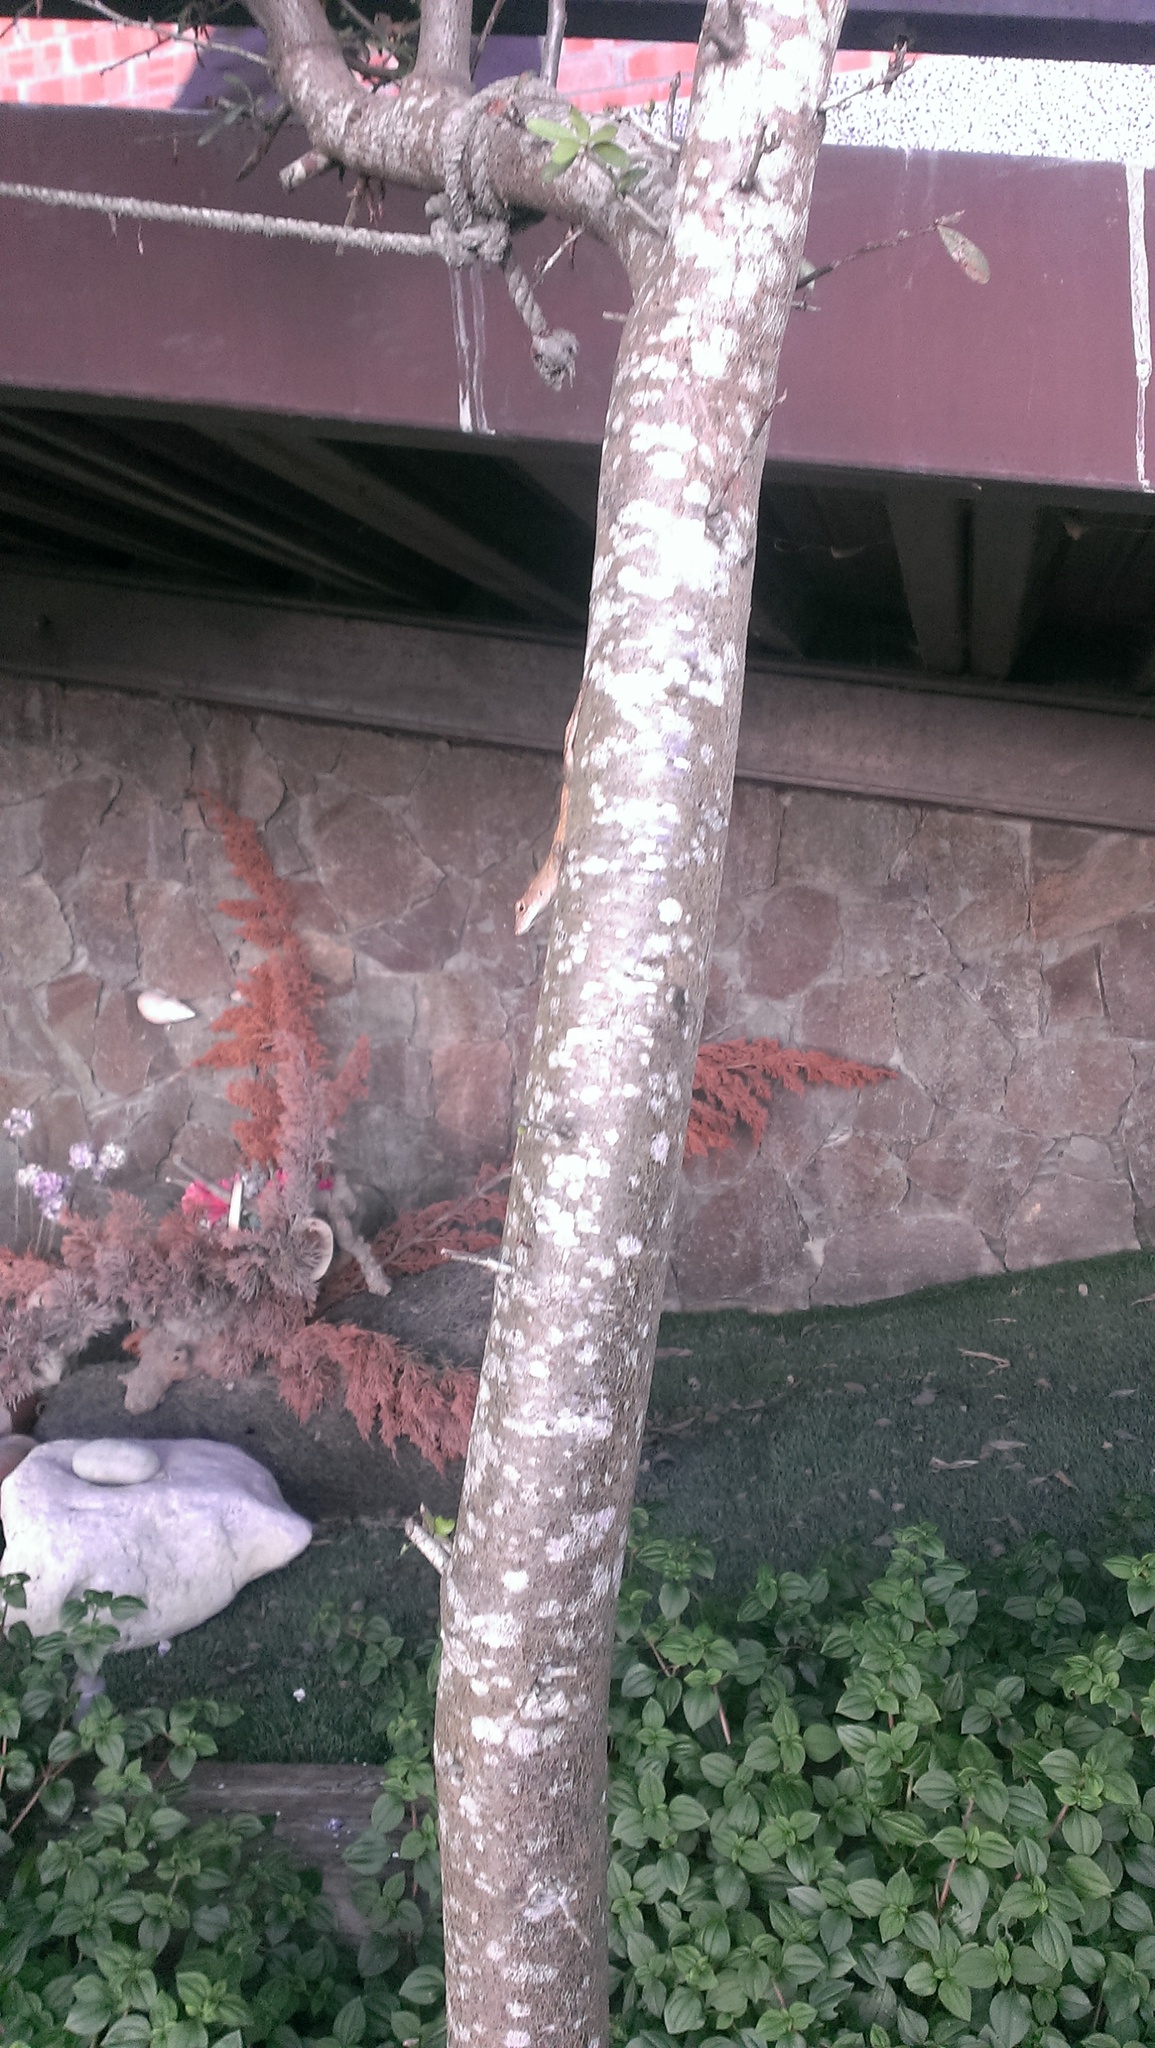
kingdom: Animalia
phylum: Chordata
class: Squamata
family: Dactyloidae
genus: Anolis
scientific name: Anolis sagrei
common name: Brown anole
